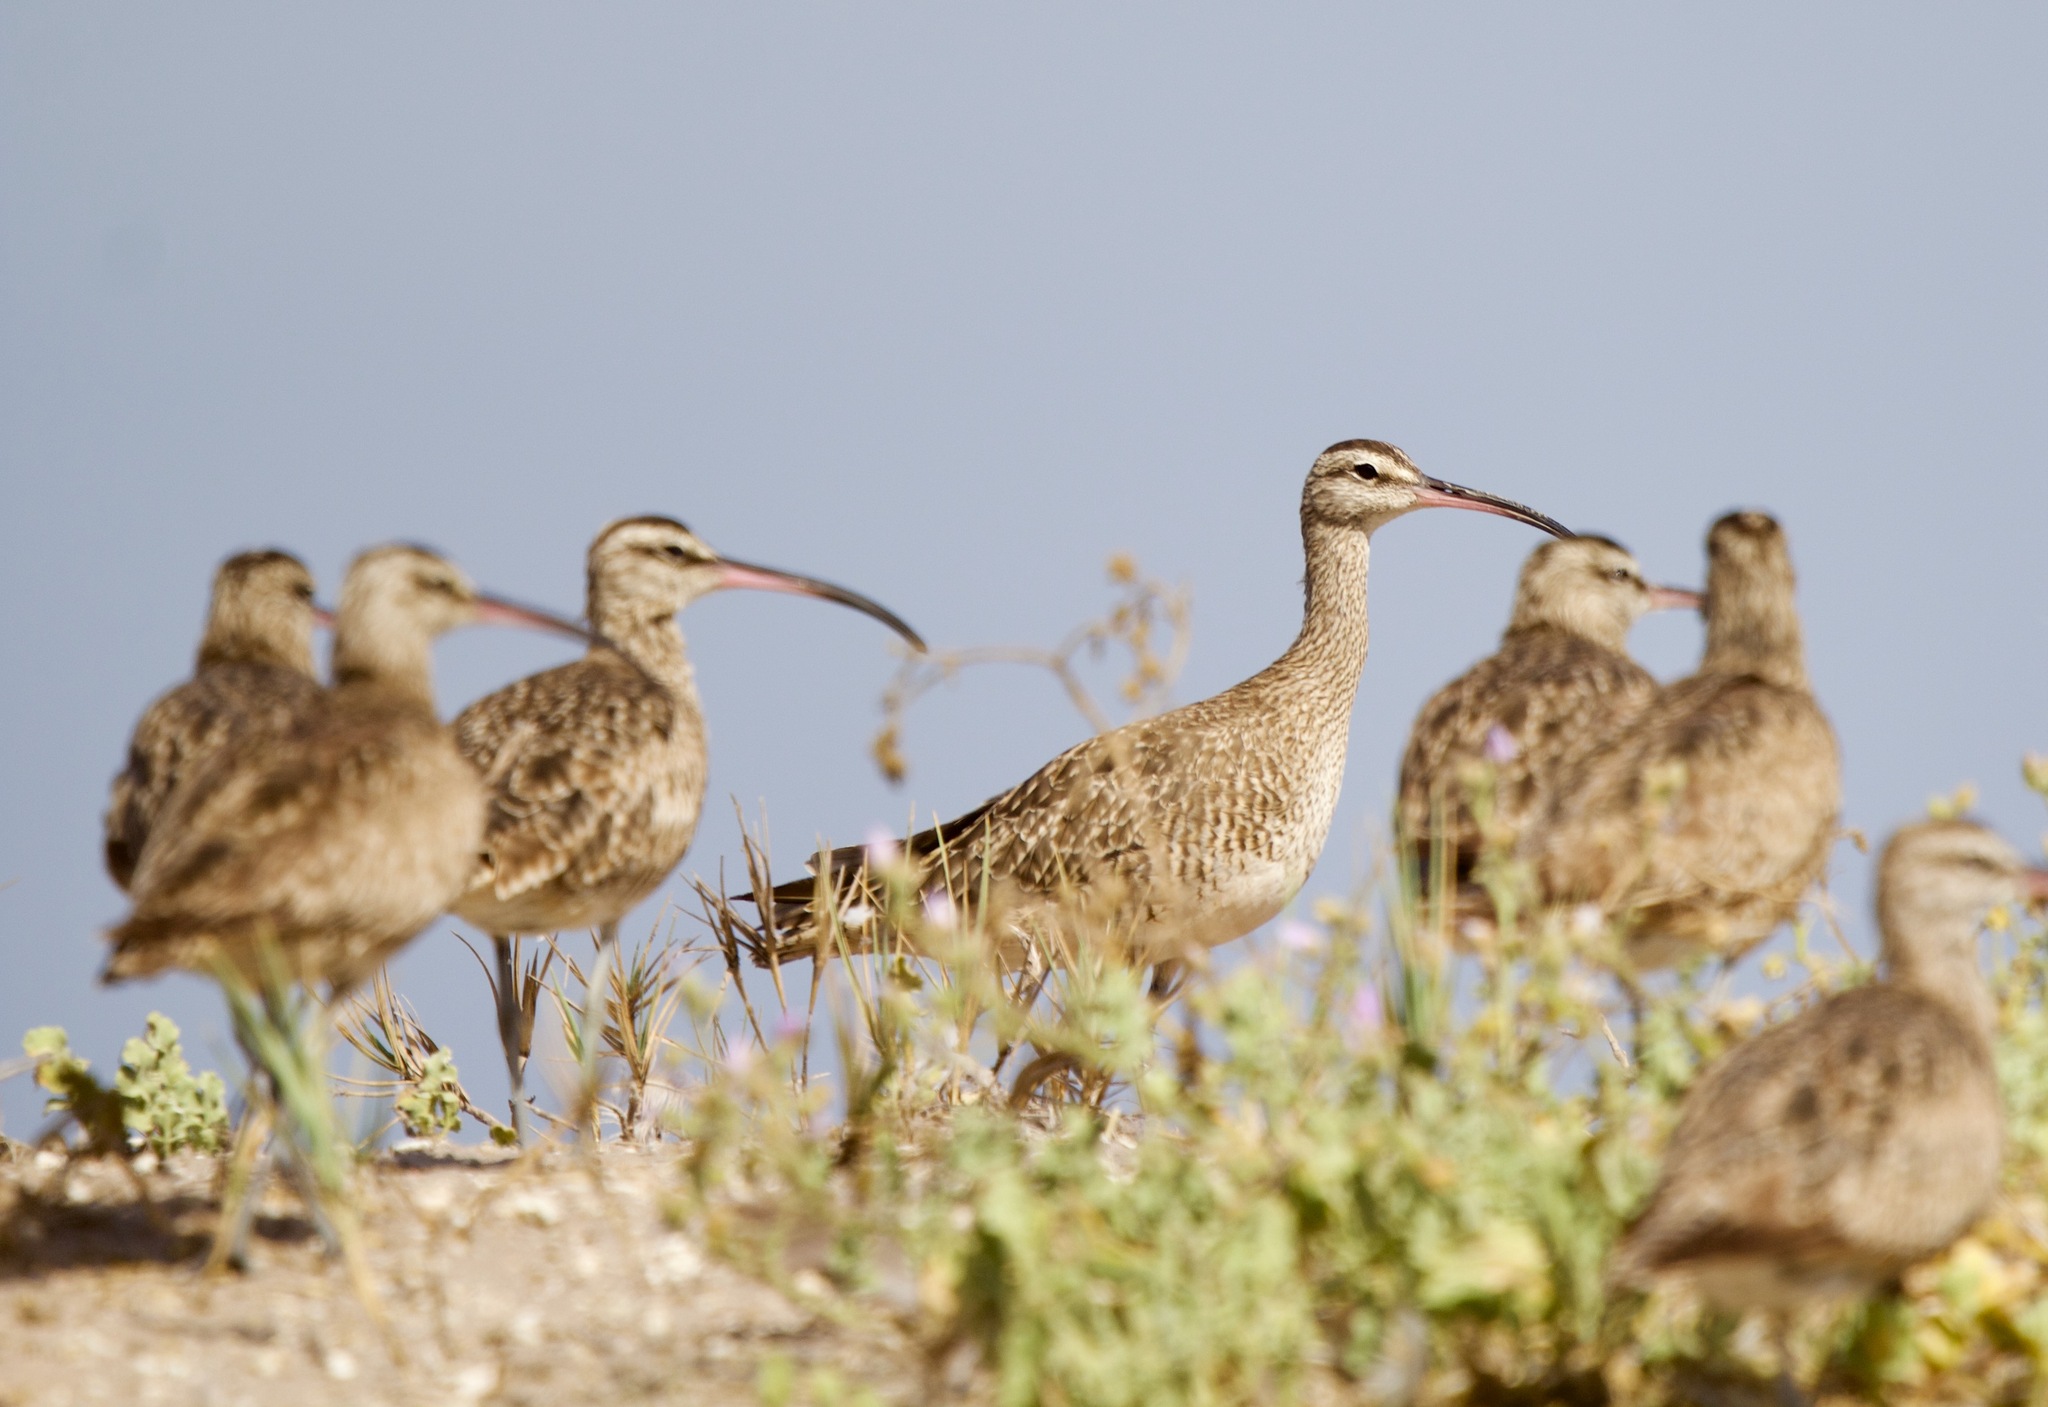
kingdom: Animalia
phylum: Chordata
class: Aves
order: Charadriiformes
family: Scolopacidae
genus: Numenius
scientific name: Numenius phaeopus
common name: Whimbrel
